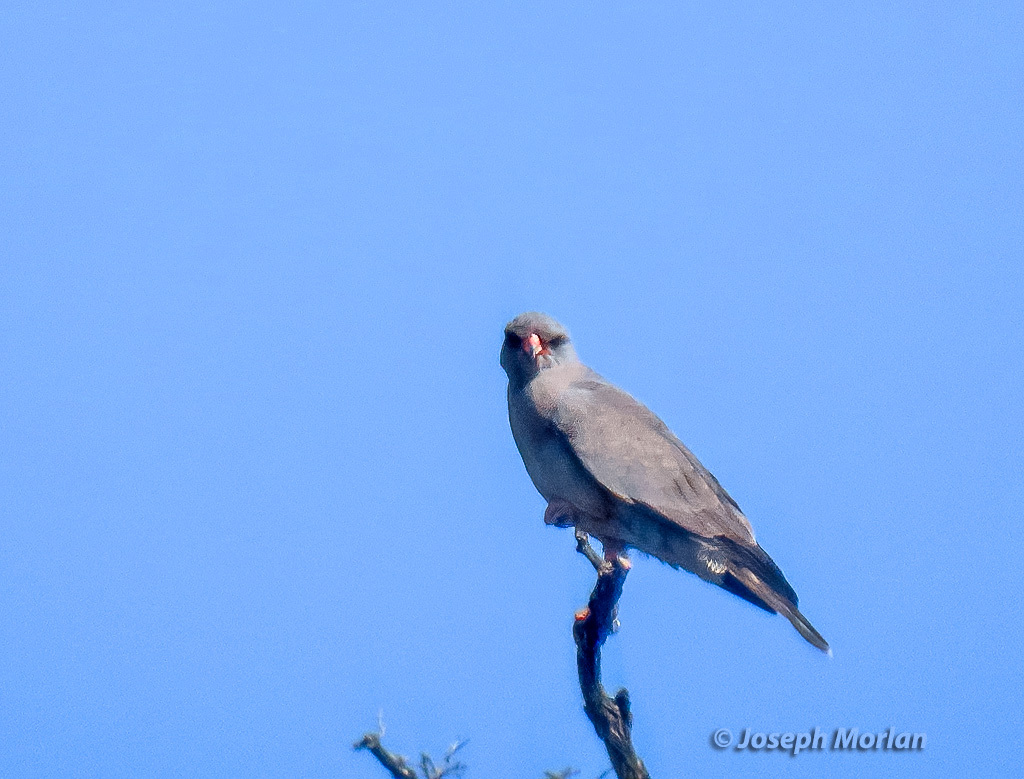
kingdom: Animalia
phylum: Chordata
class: Aves
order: Accipitriformes
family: Accipitridae
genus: Melierax
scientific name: Melierax metabates
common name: Dark chanting-goshawk
